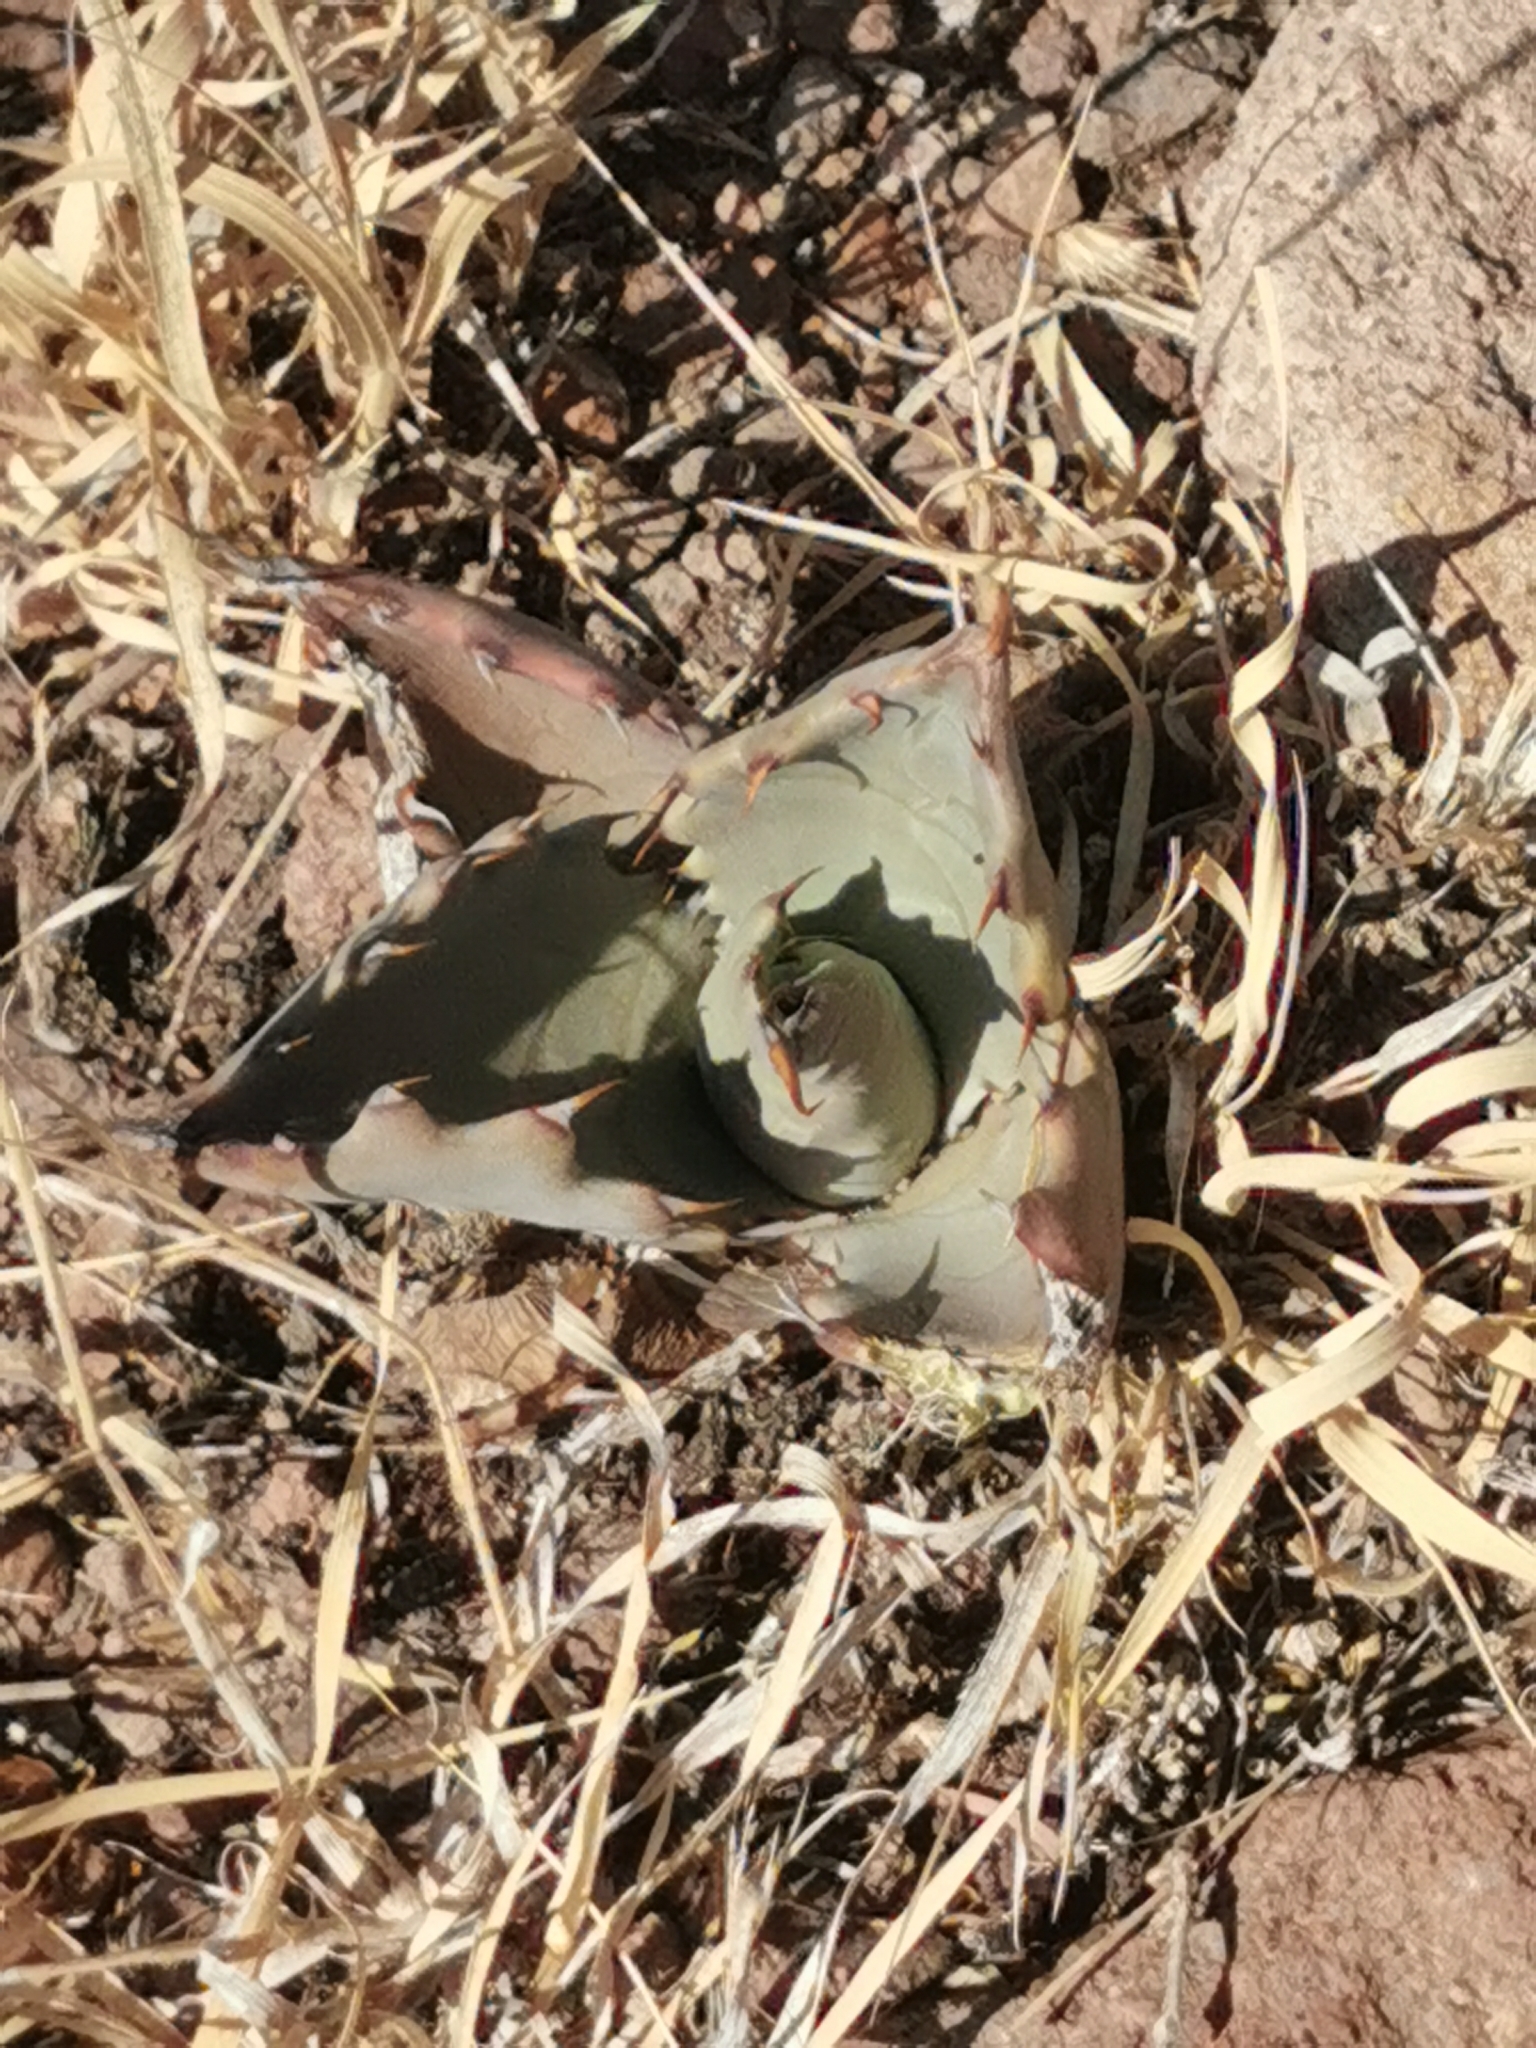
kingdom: Plantae
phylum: Tracheophyta
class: Liliopsida
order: Asparagales
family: Asparagaceae
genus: Agave
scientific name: Agave durangensis
